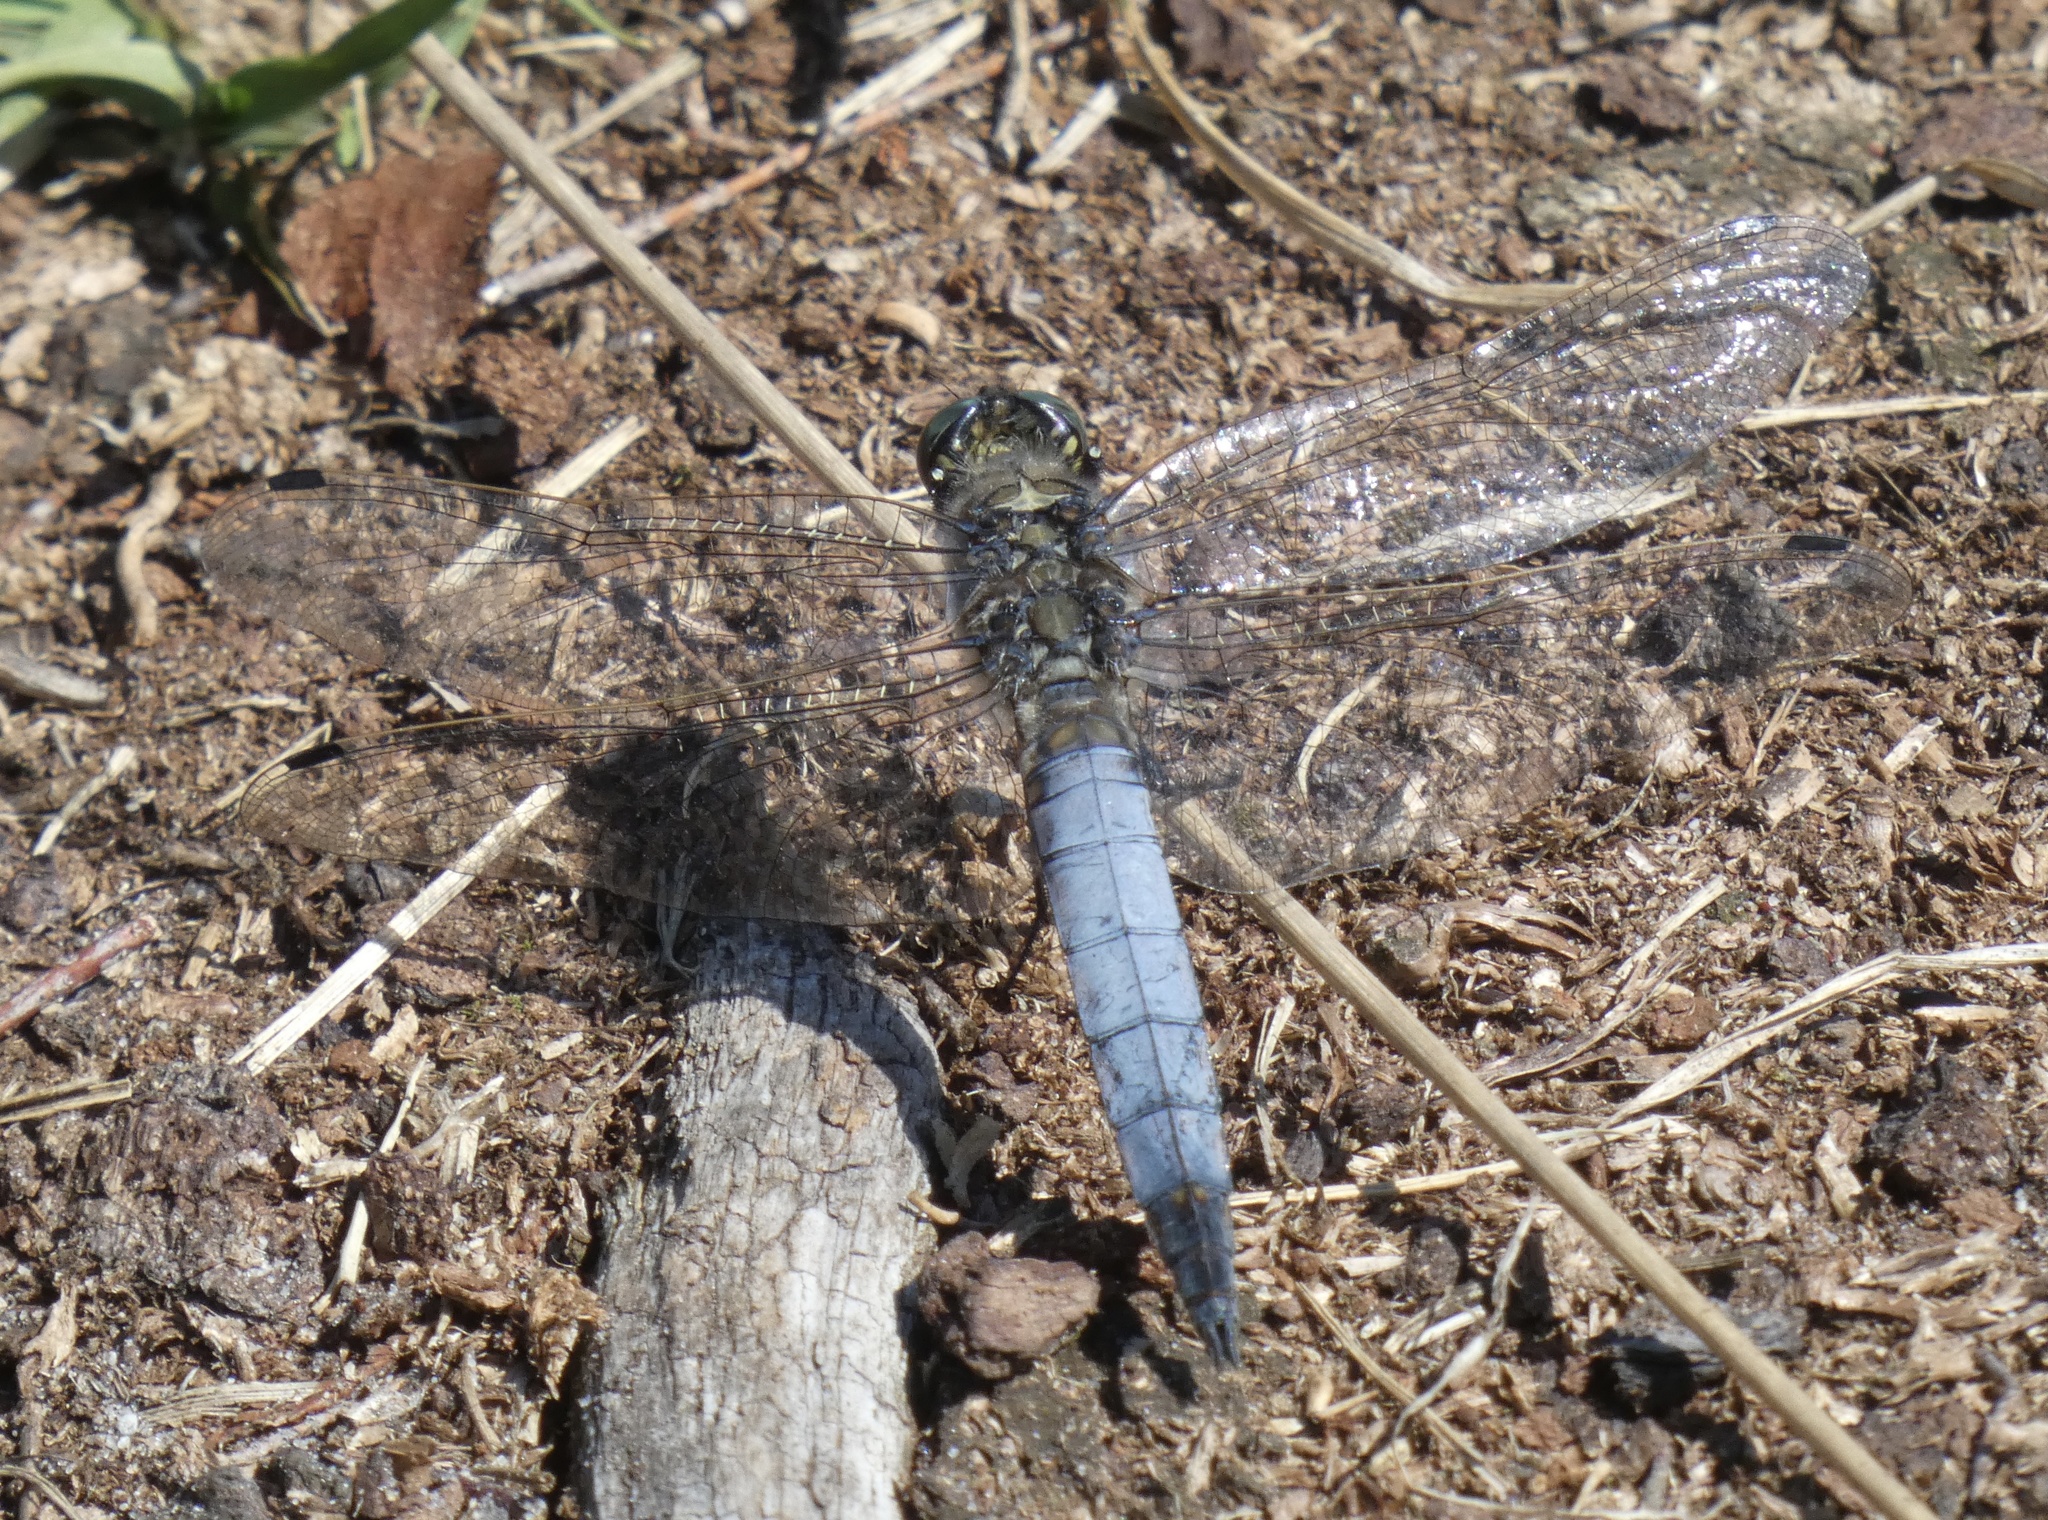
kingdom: Animalia
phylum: Arthropoda
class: Insecta
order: Odonata
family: Libellulidae
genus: Orthetrum
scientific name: Orthetrum cancellatum
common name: Black-tailed skimmer
